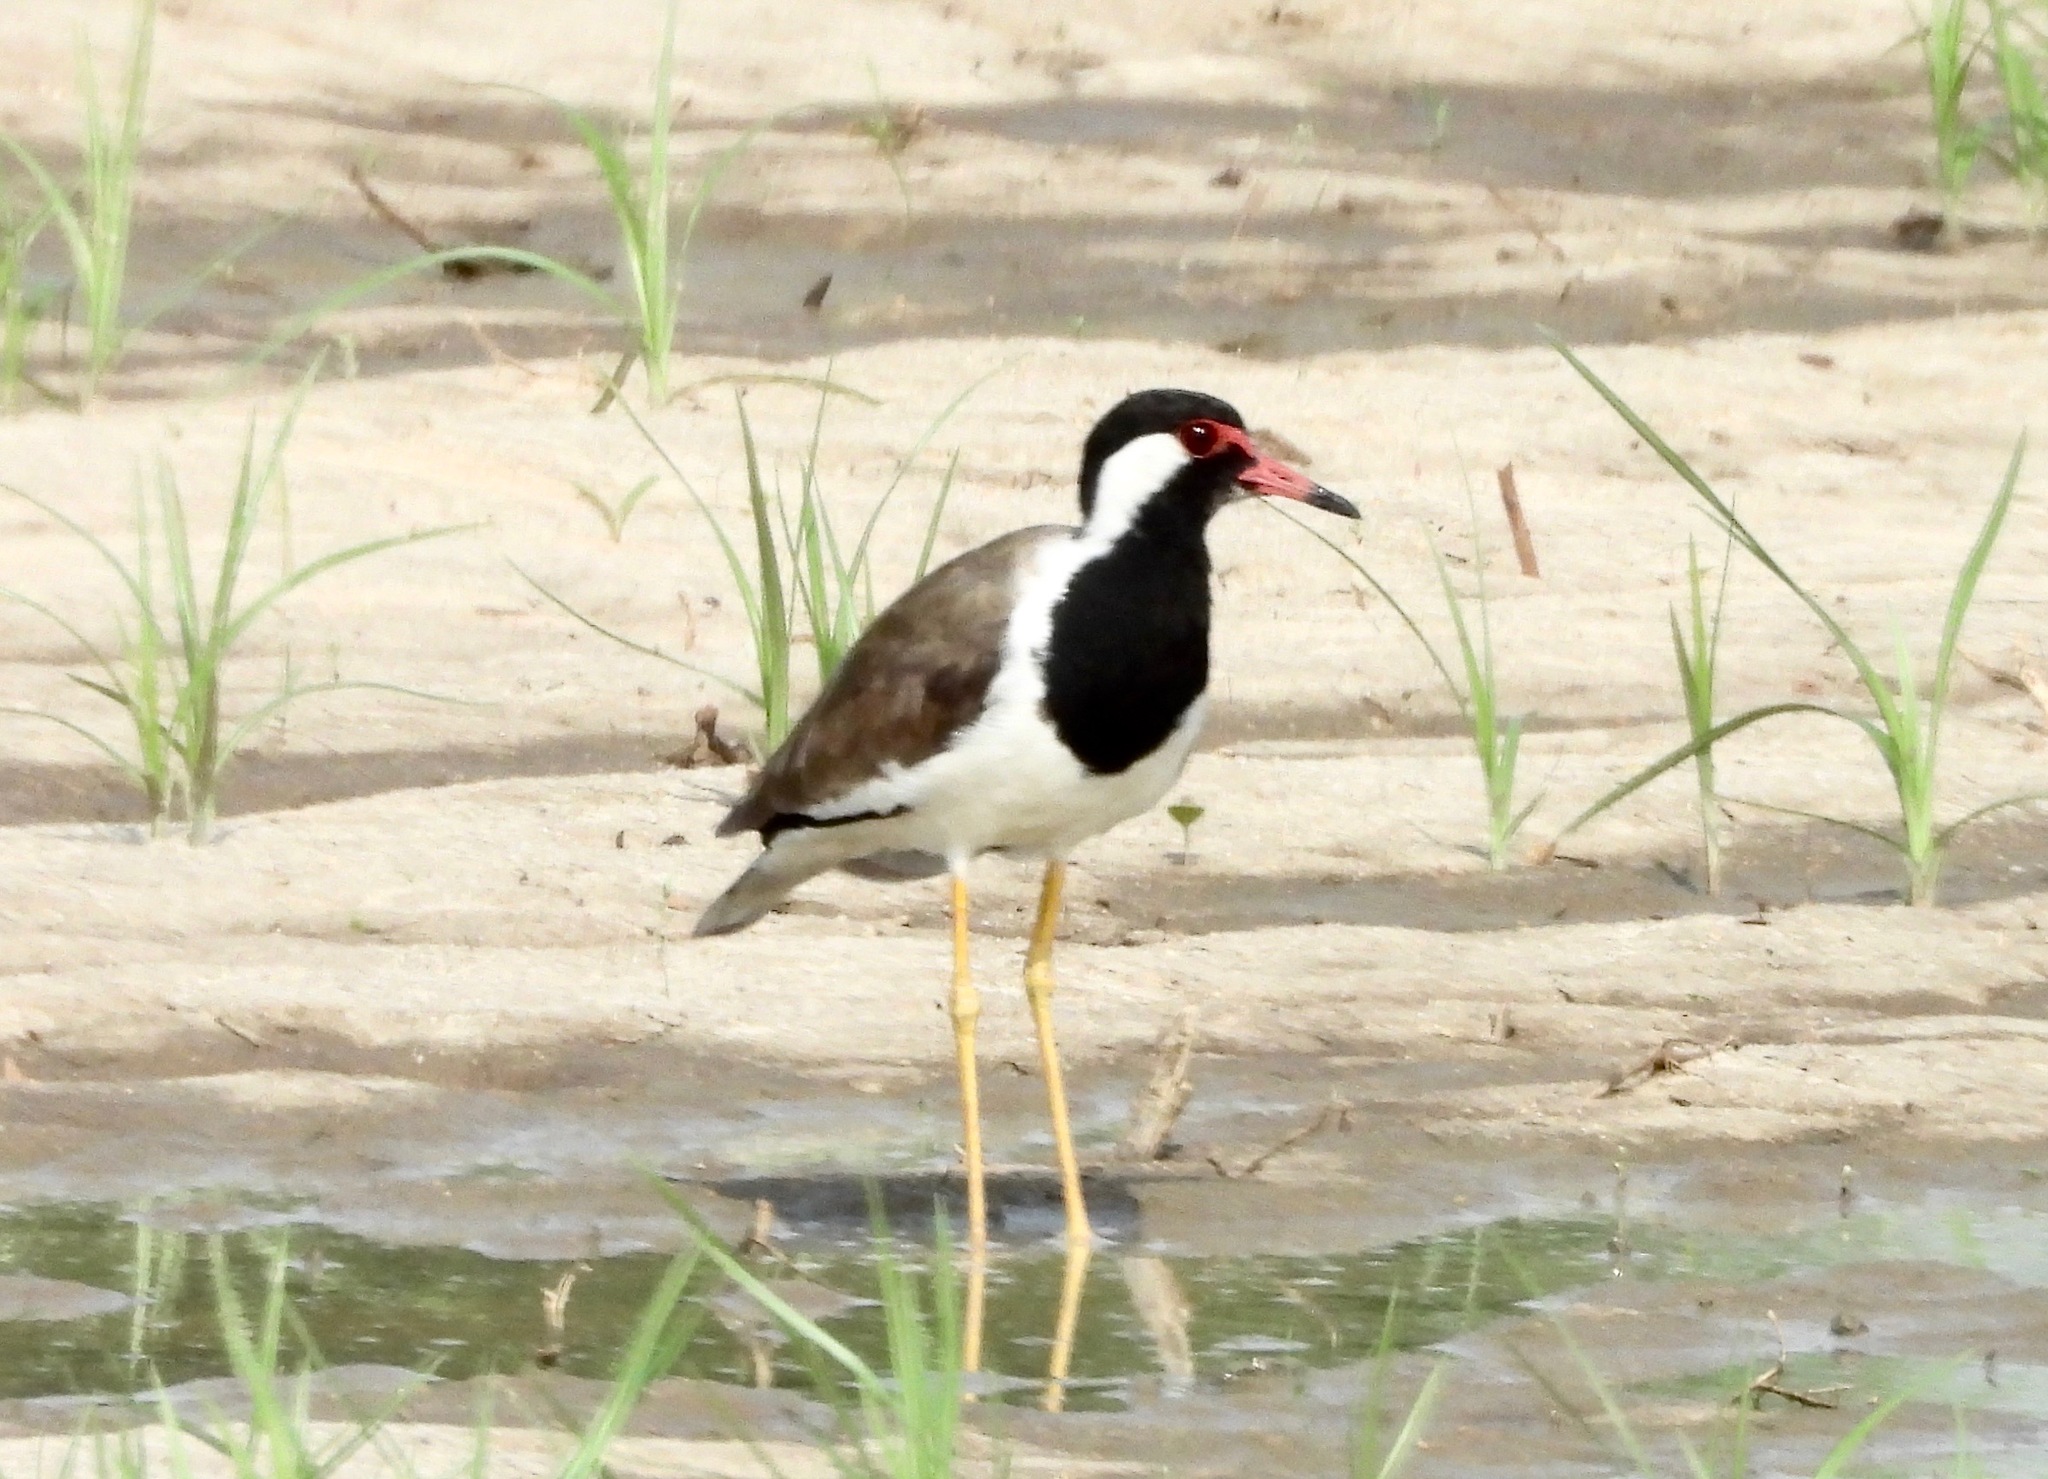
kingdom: Animalia
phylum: Chordata
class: Aves
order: Charadriiformes
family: Charadriidae
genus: Vanellus
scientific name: Vanellus indicus
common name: Red-wattled lapwing
